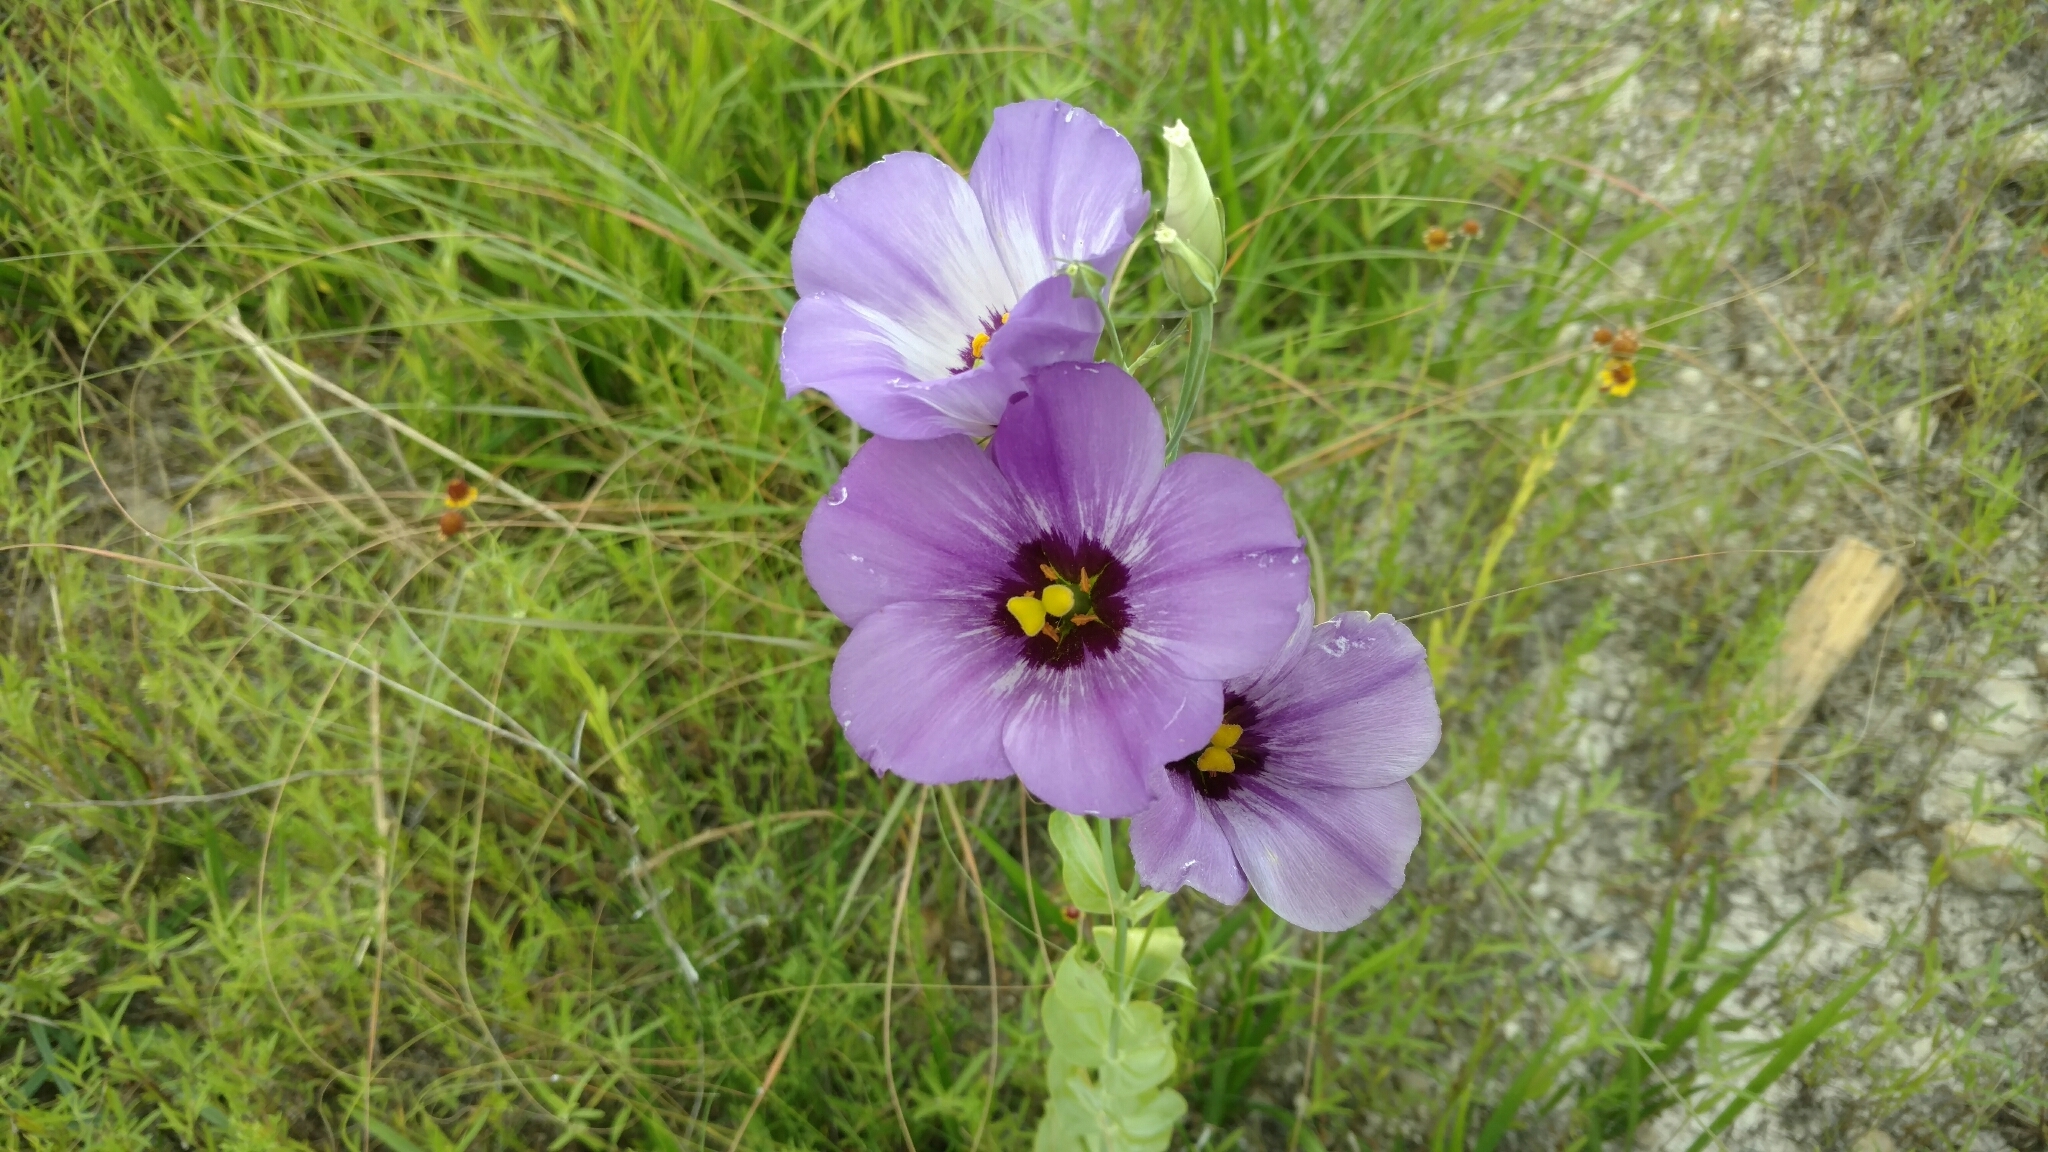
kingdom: Plantae
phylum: Tracheophyta
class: Magnoliopsida
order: Gentianales
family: Gentianaceae
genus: Eustoma
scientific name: Eustoma russellianum
